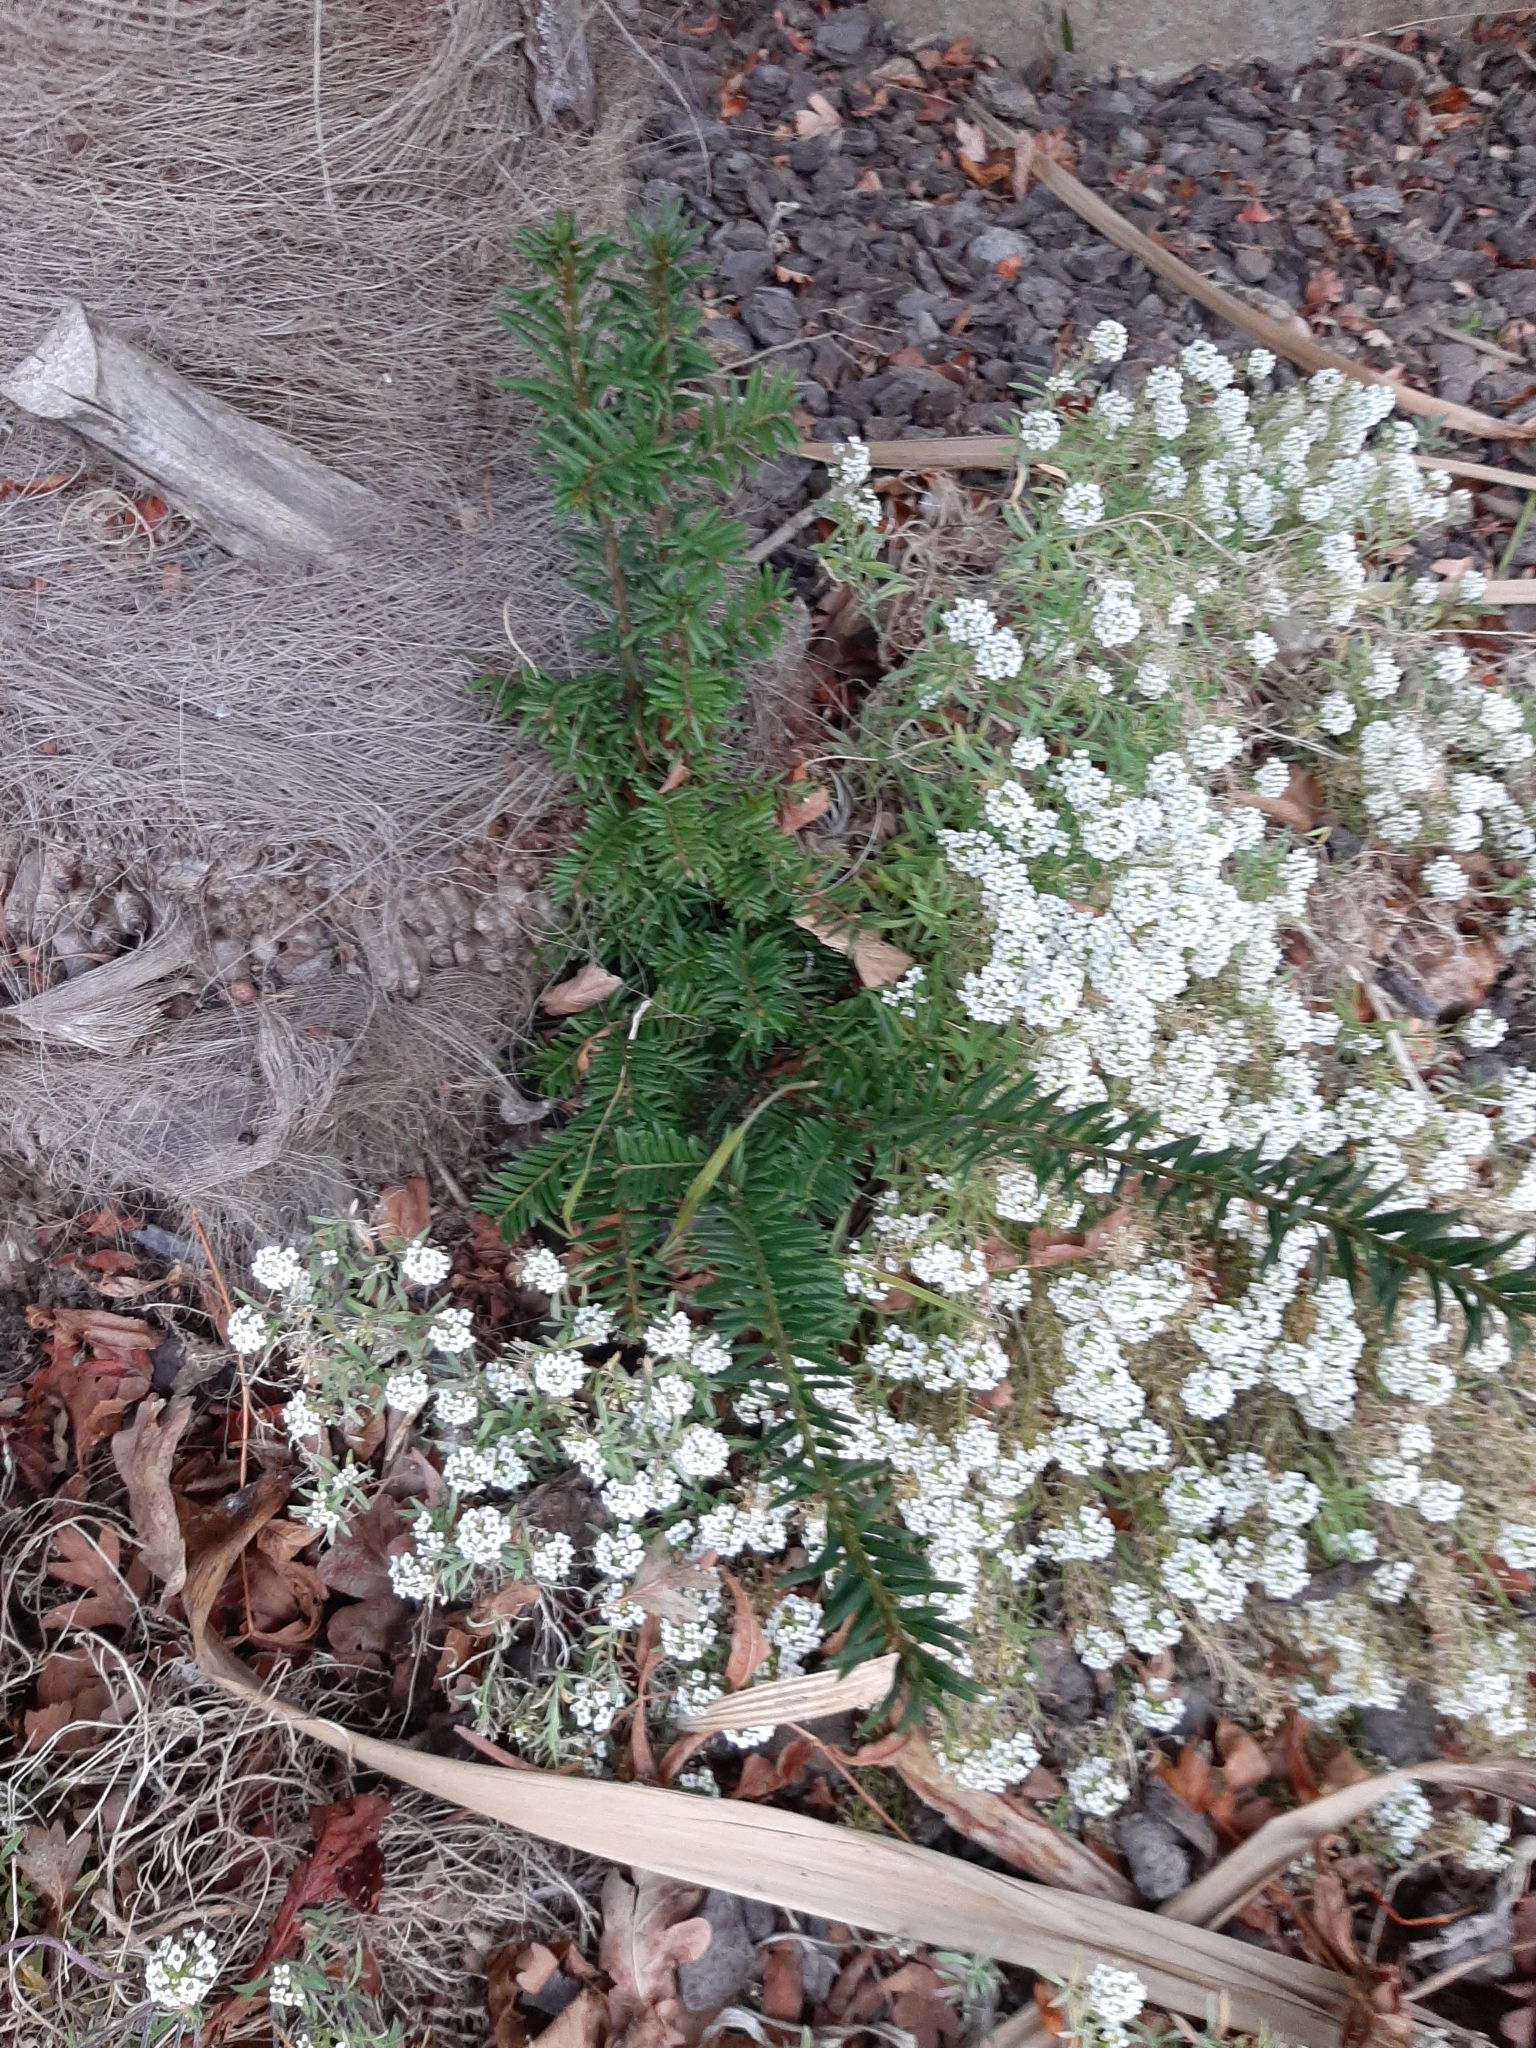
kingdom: Plantae
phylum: Tracheophyta
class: Pinopsida
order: Pinales
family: Taxaceae
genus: Taxus
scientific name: Taxus baccata
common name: Yew
